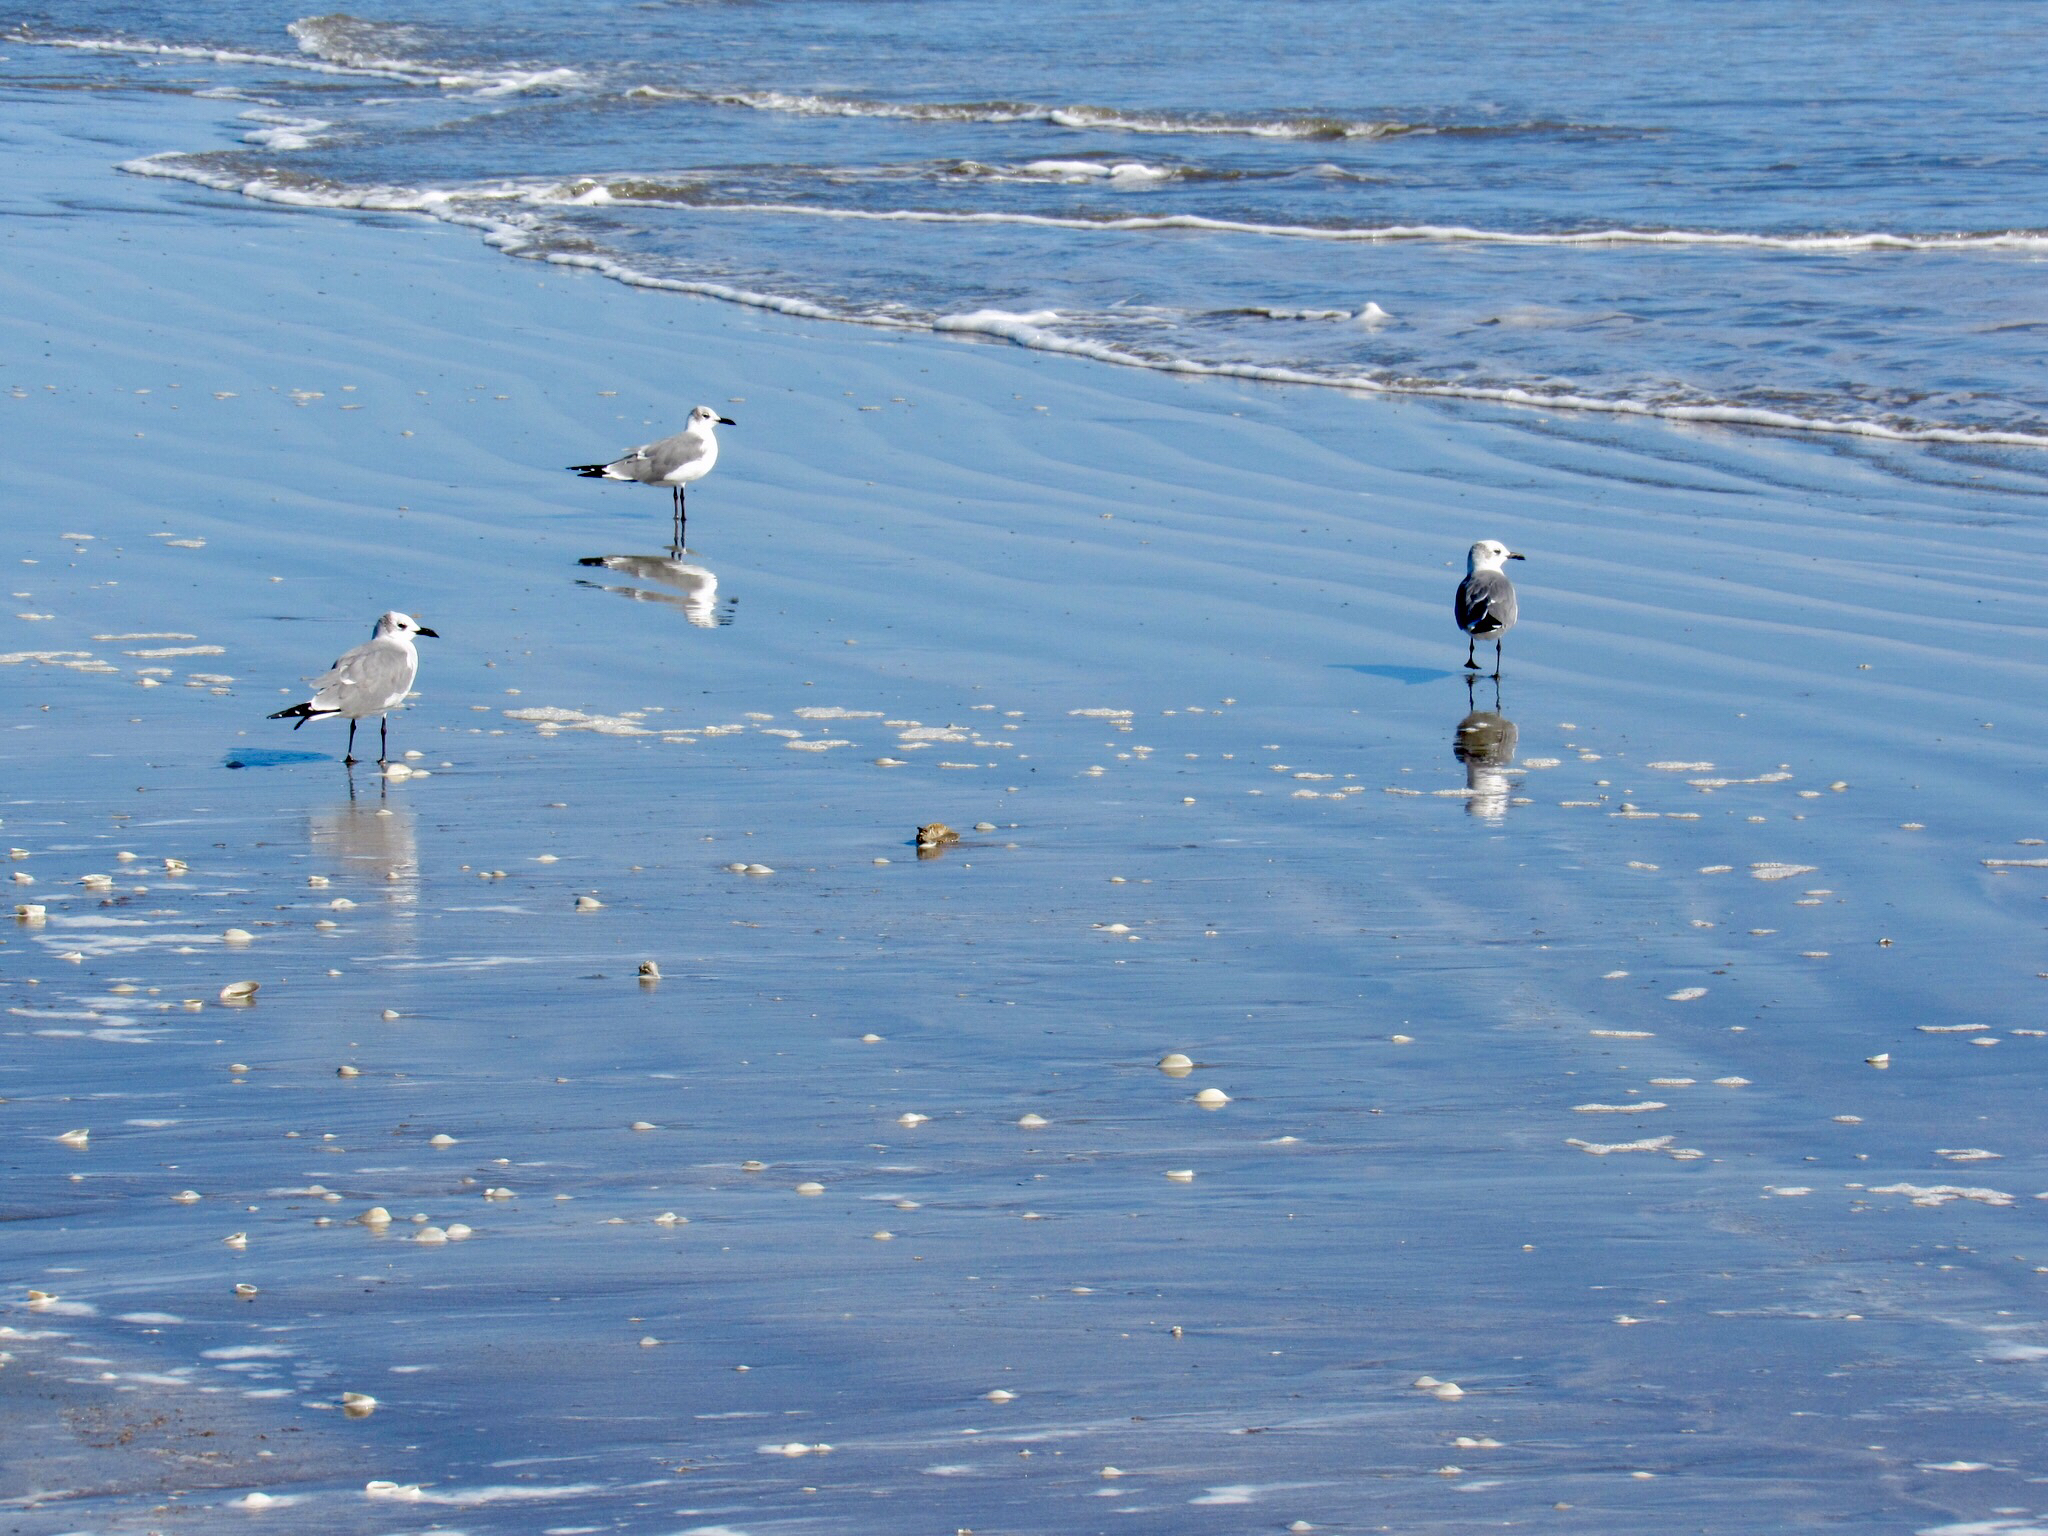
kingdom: Animalia
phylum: Chordata
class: Aves
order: Charadriiformes
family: Laridae
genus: Leucophaeus
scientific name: Leucophaeus atricilla
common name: Laughing gull
